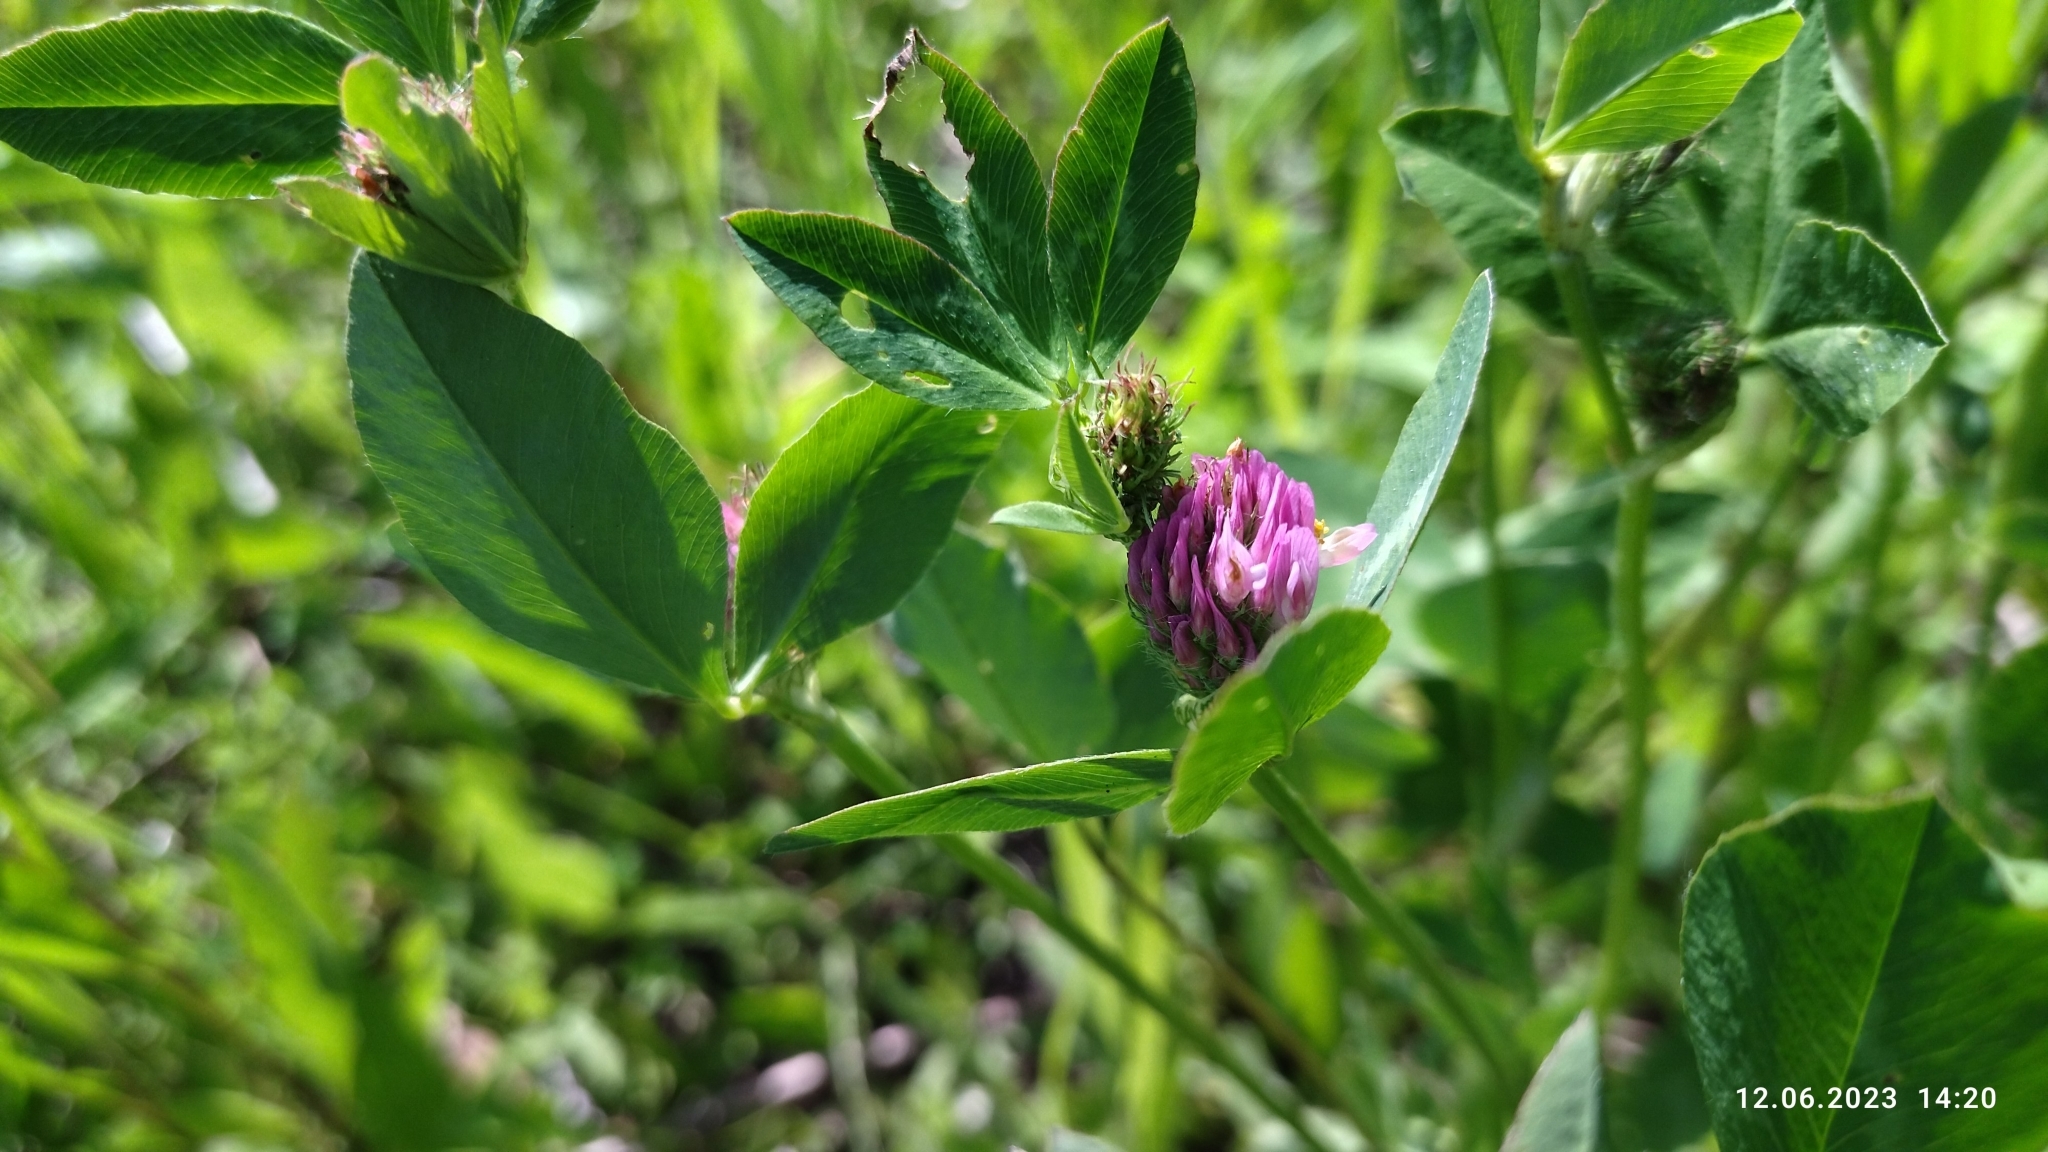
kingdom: Plantae
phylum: Tracheophyta
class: Magnoliopsida
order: Fabales
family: Fabaceae
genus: Trifolium
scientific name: Trifolium pratense
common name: Red clover
